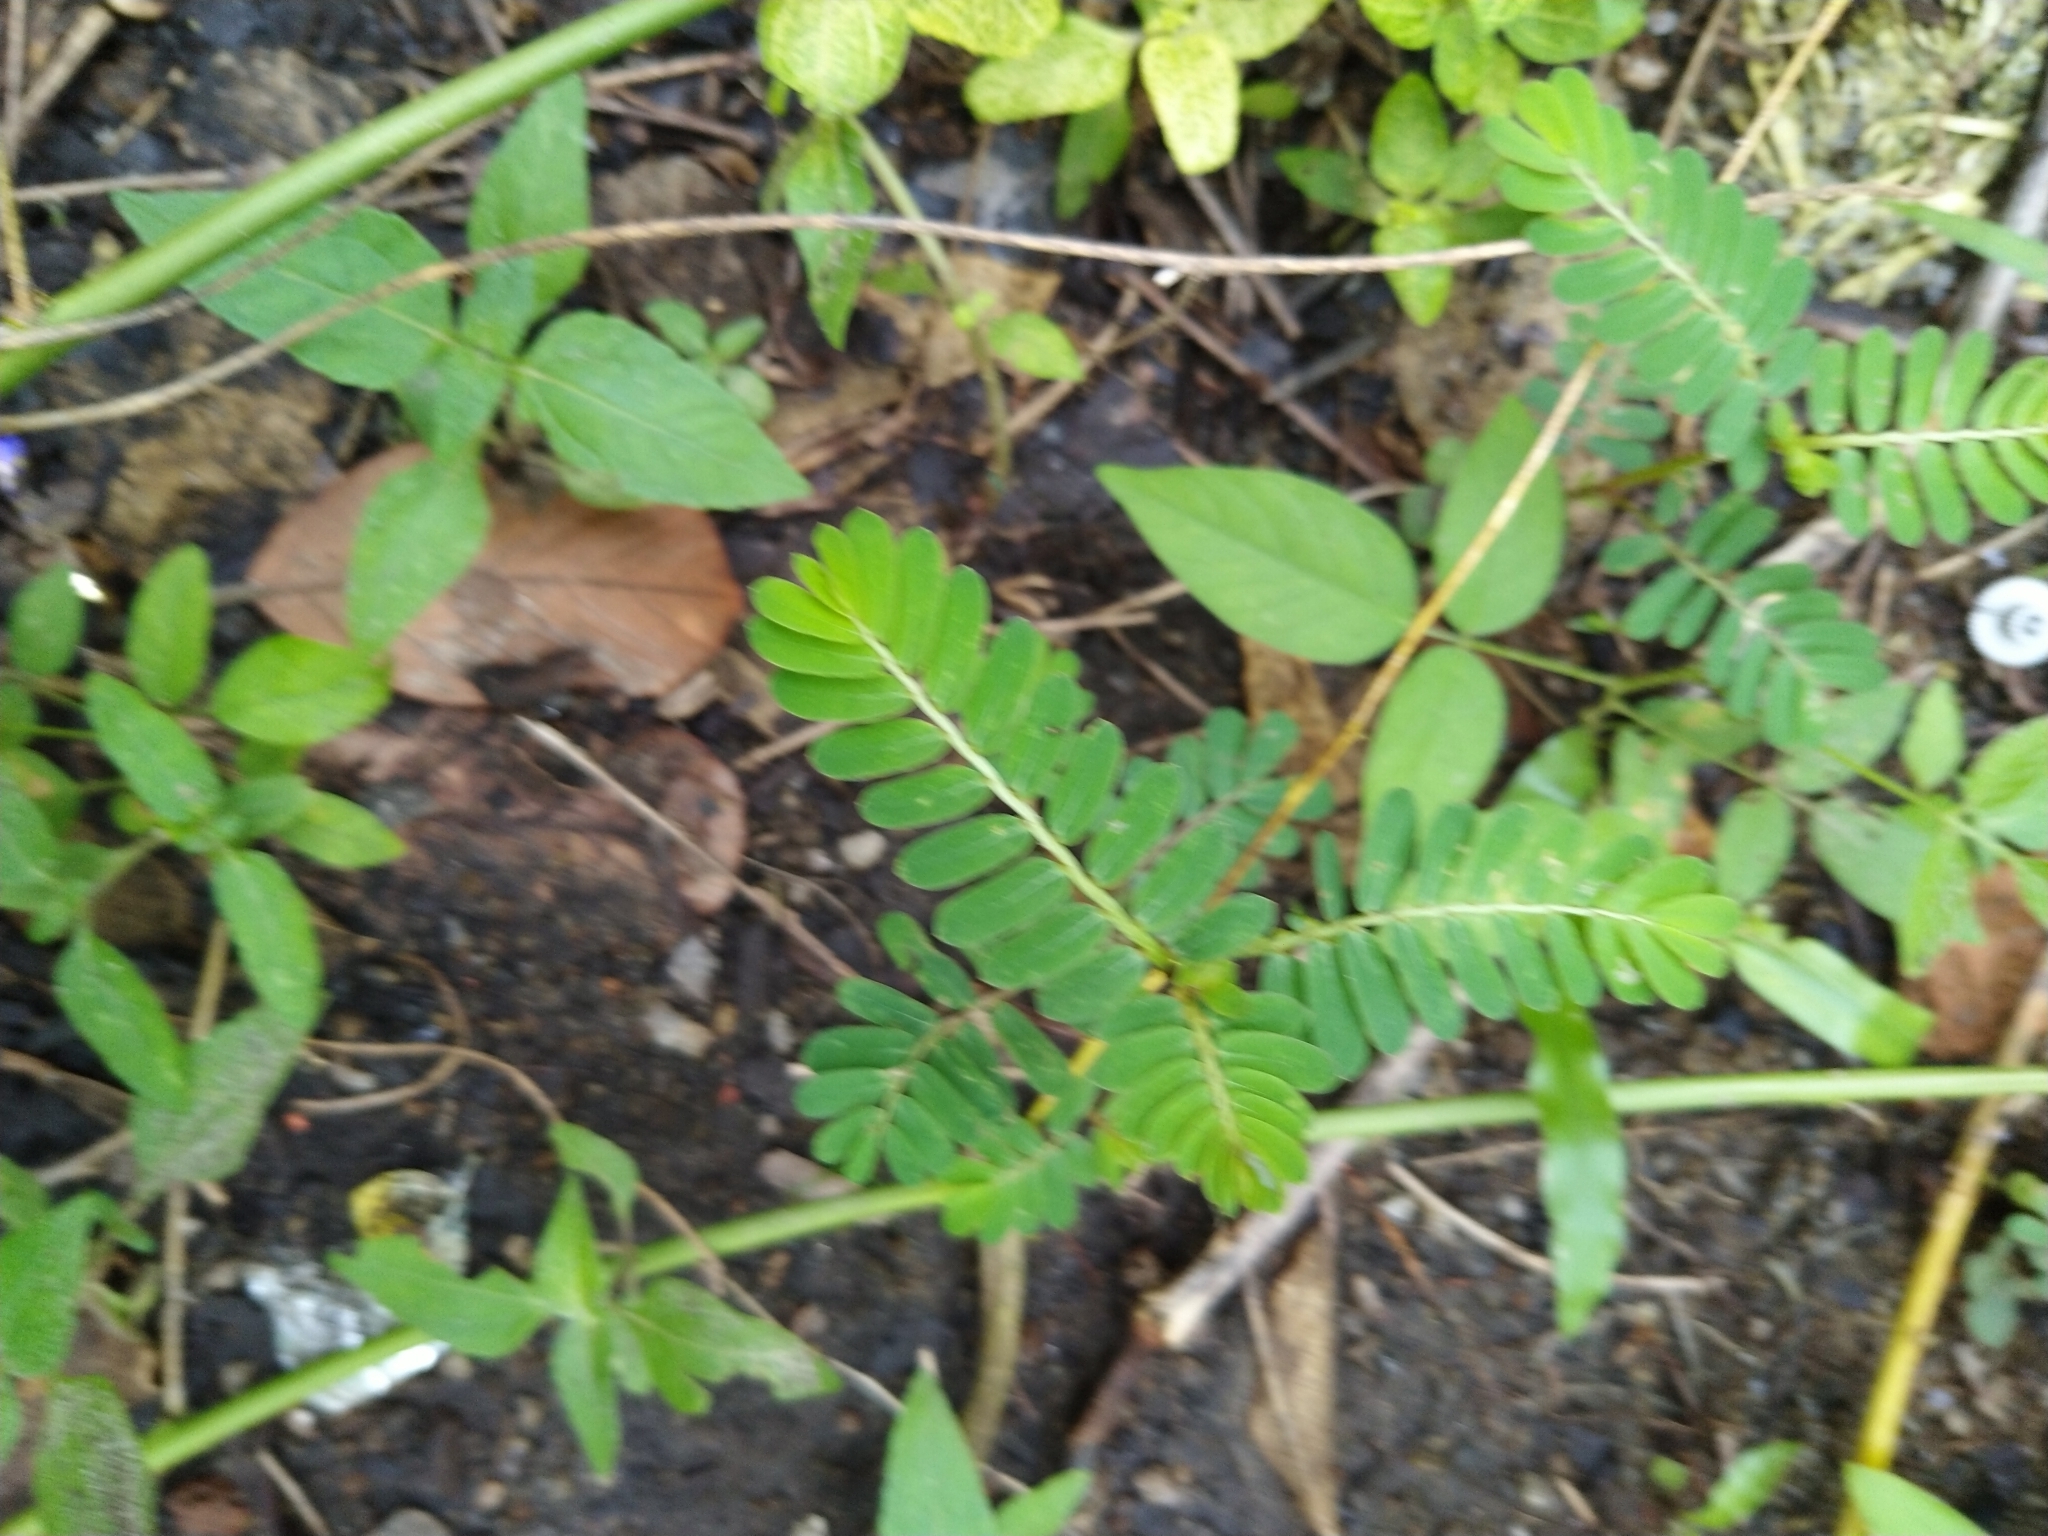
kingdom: Plantae
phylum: Tracheophyta
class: Magnoliopsida
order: Malpighiales
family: Phyllanthaceae
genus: Phyllanthus
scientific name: Phyllanthus urinaria
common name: Chamber bitter
